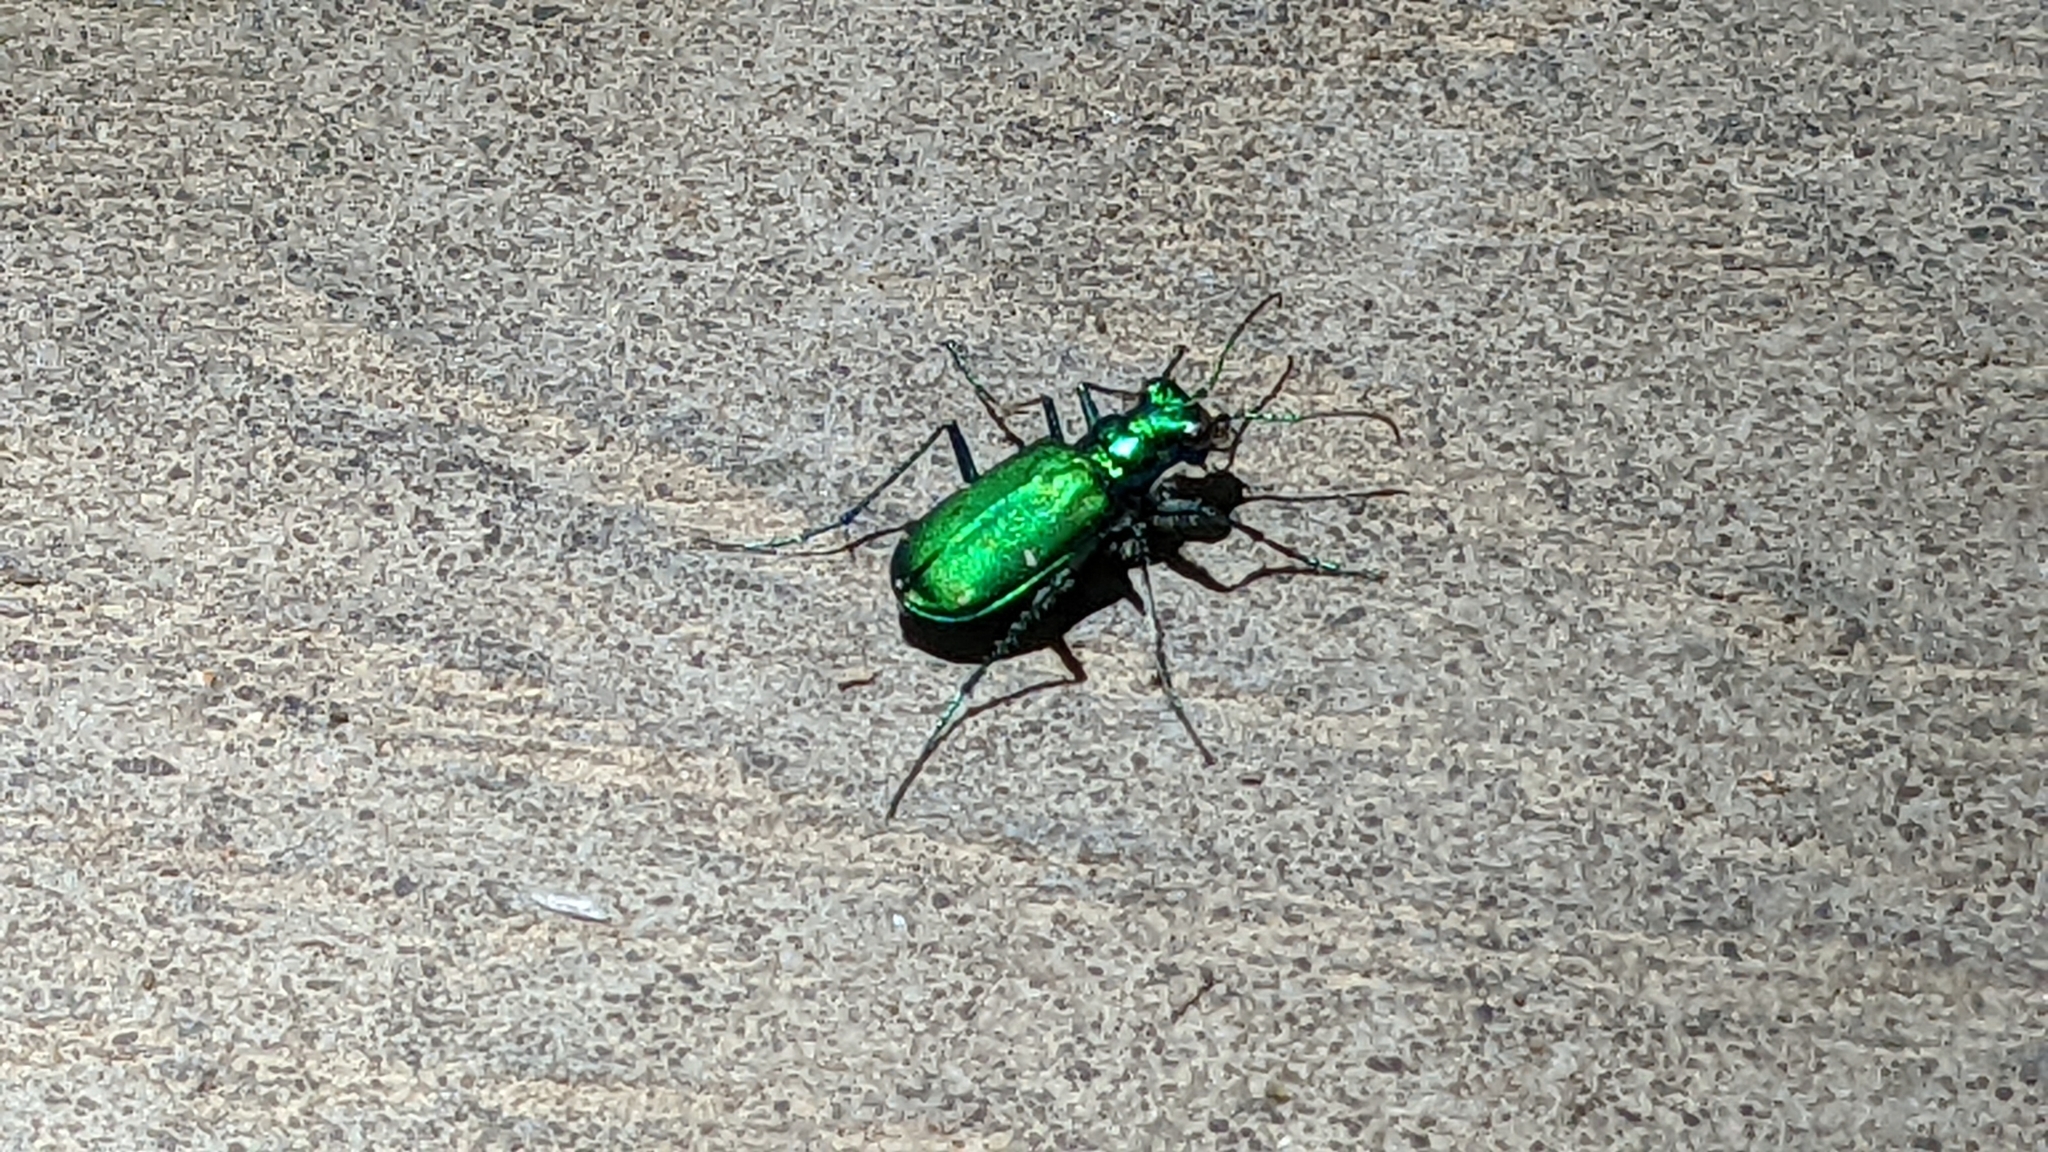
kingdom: Animalia
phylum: Arthropoda
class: Insecta
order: Coleoptera
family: Carabidae
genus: Cicindela
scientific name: Cicindela sexguttata
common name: Six-spotted tiger beetle
